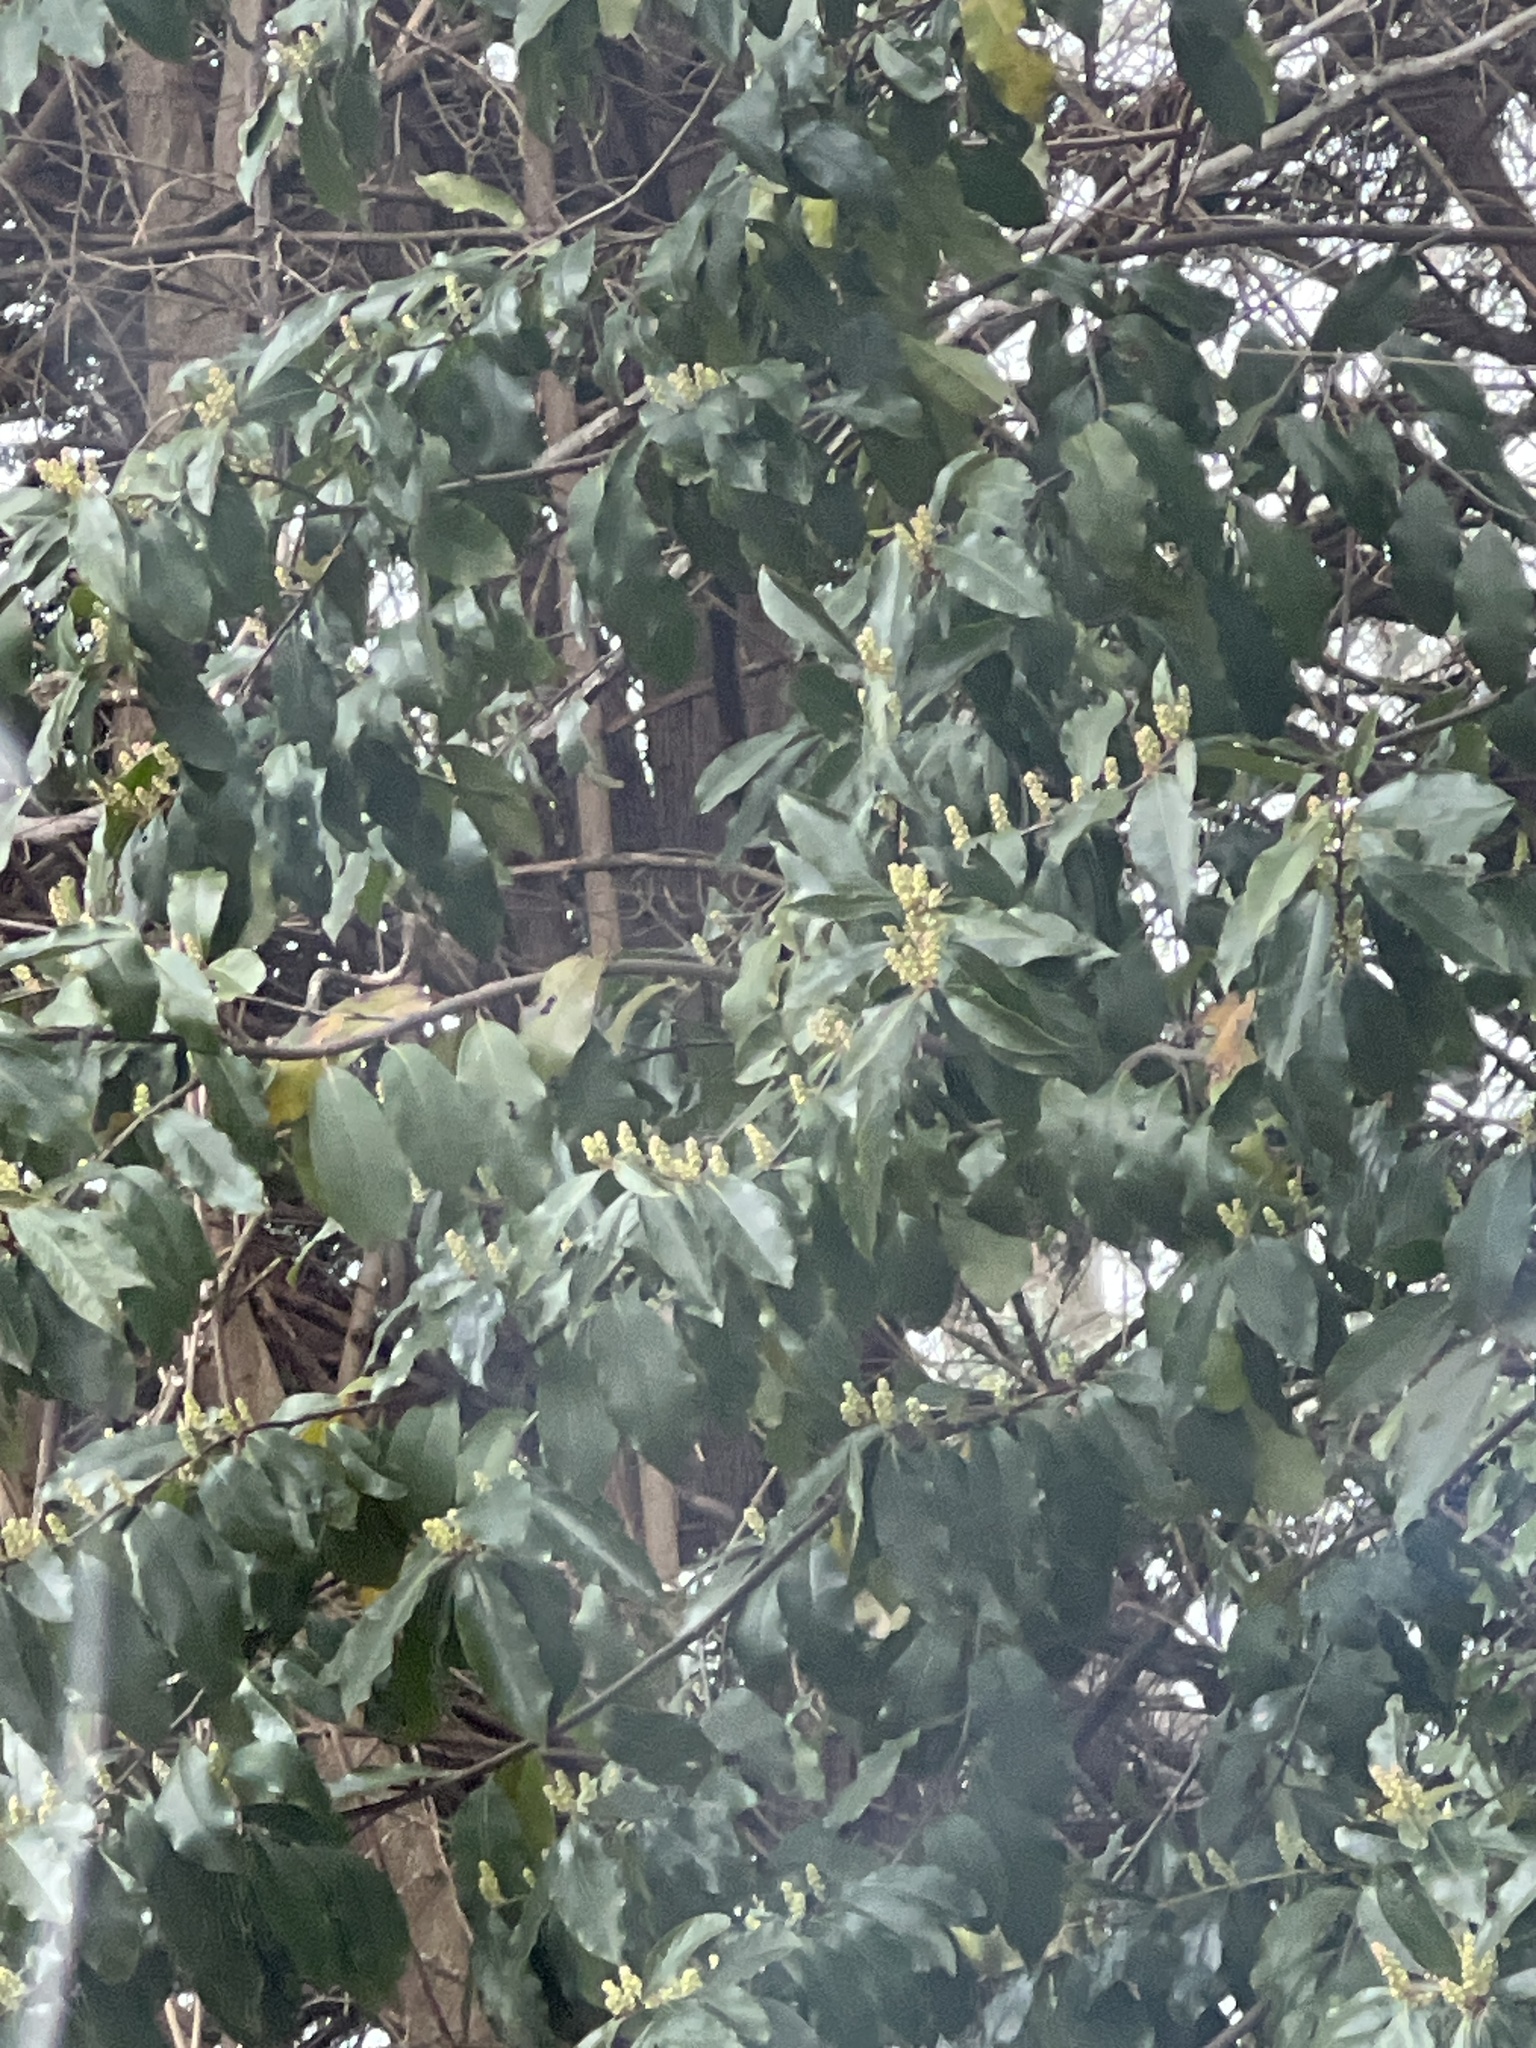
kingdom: Plantae
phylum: Tracheophyta
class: Magnoliopsida
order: Rosales
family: Rosaceae
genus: Prunus
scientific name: Prunus caroliniana
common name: Carolina laurel cherry
